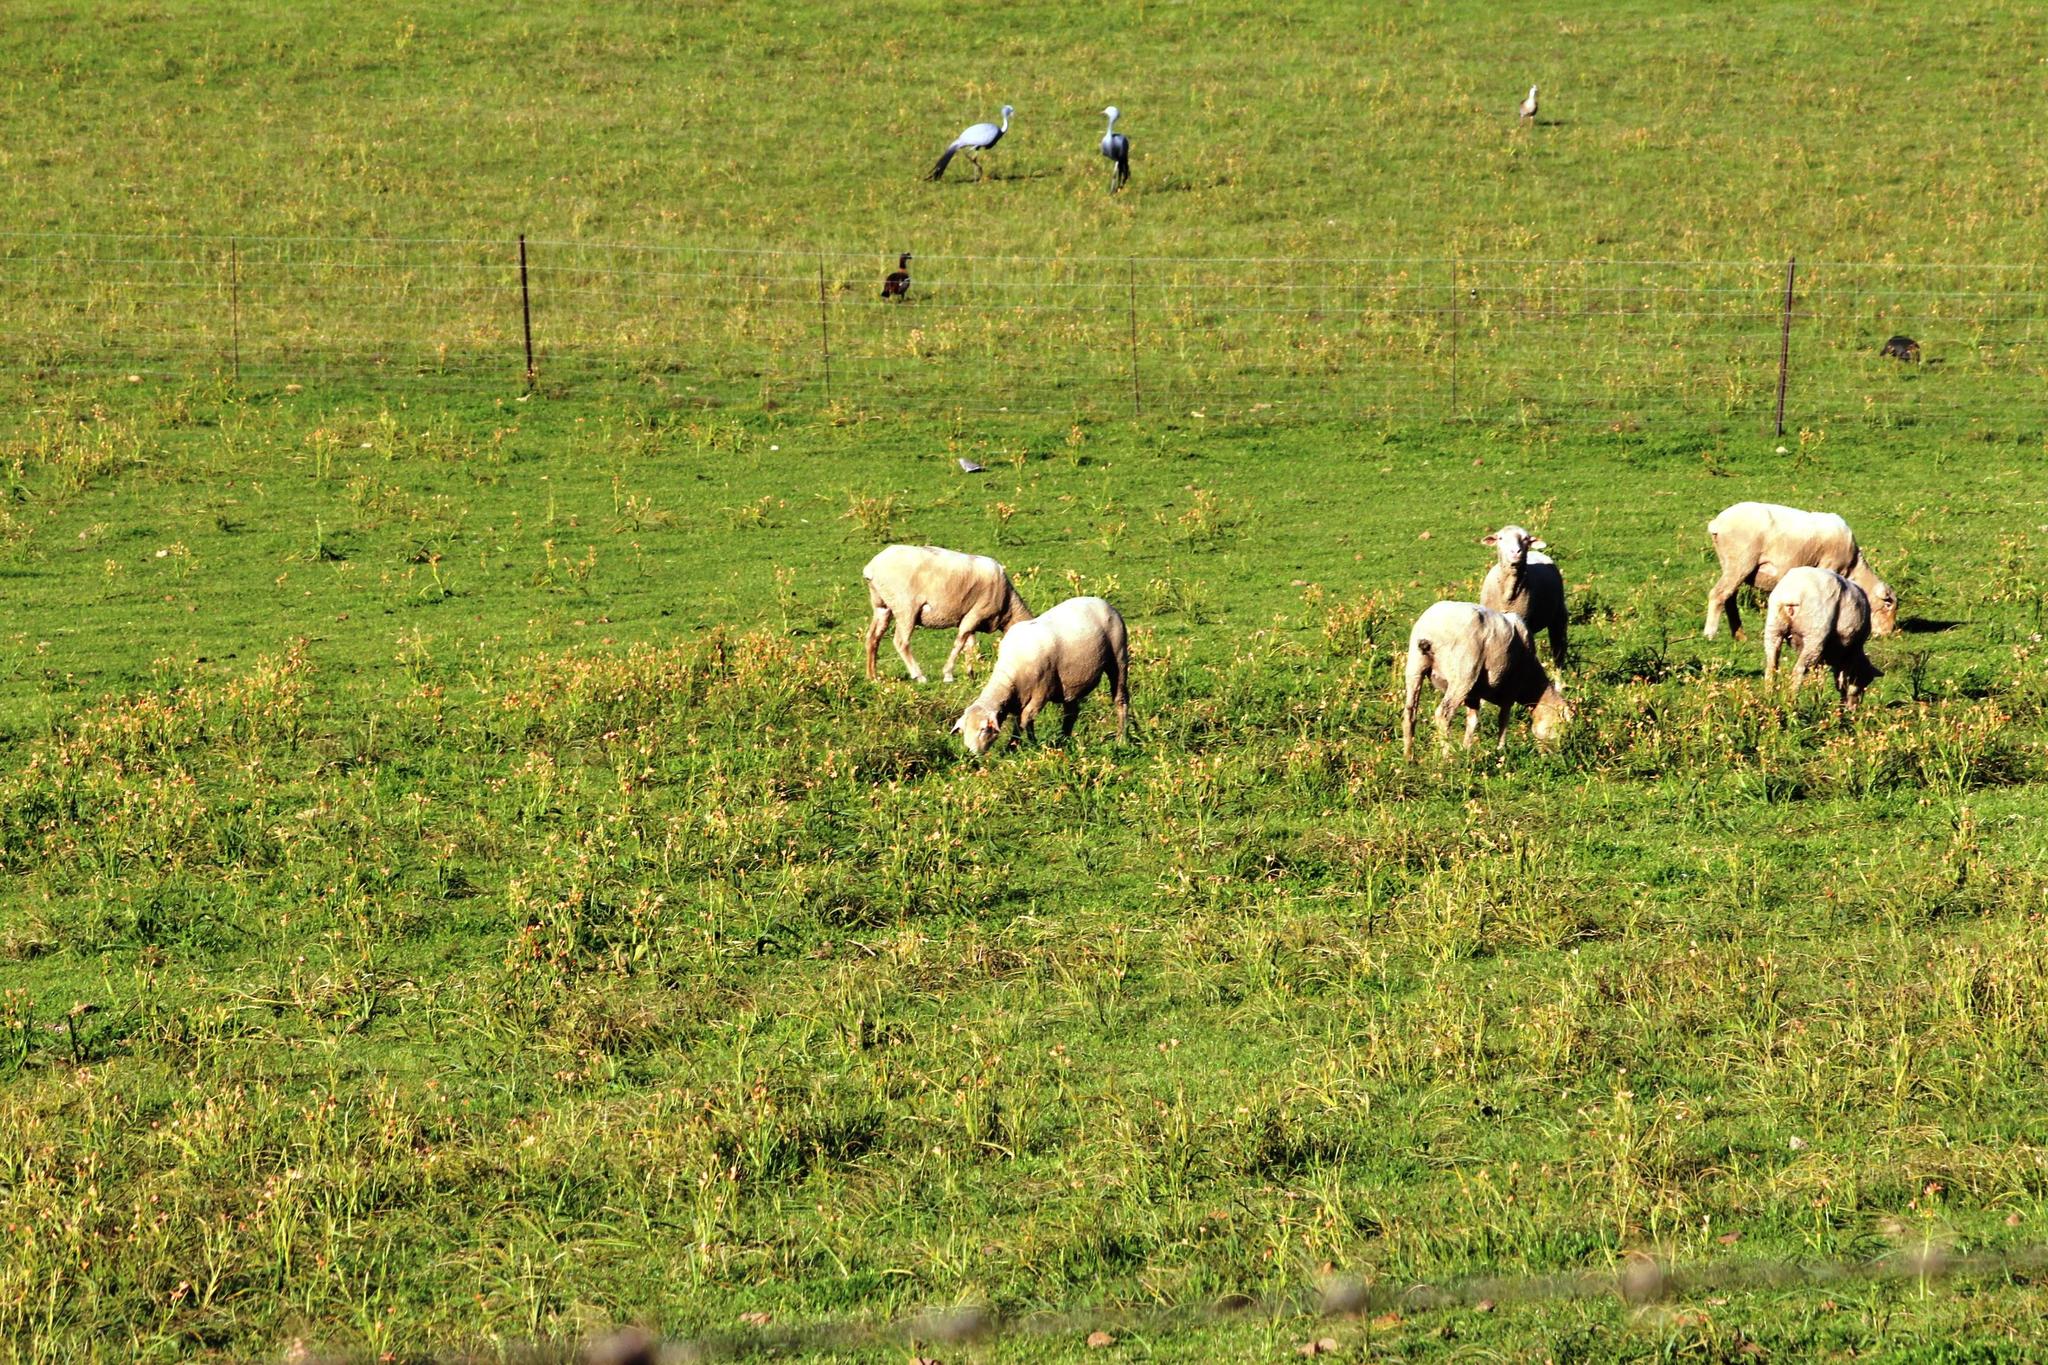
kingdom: Plantae
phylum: Tracheophyta
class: Liliopsida
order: Asparagales
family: Iridaceae
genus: Moraea
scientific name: Moraea miniata
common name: Two-leaf cape-tulip
